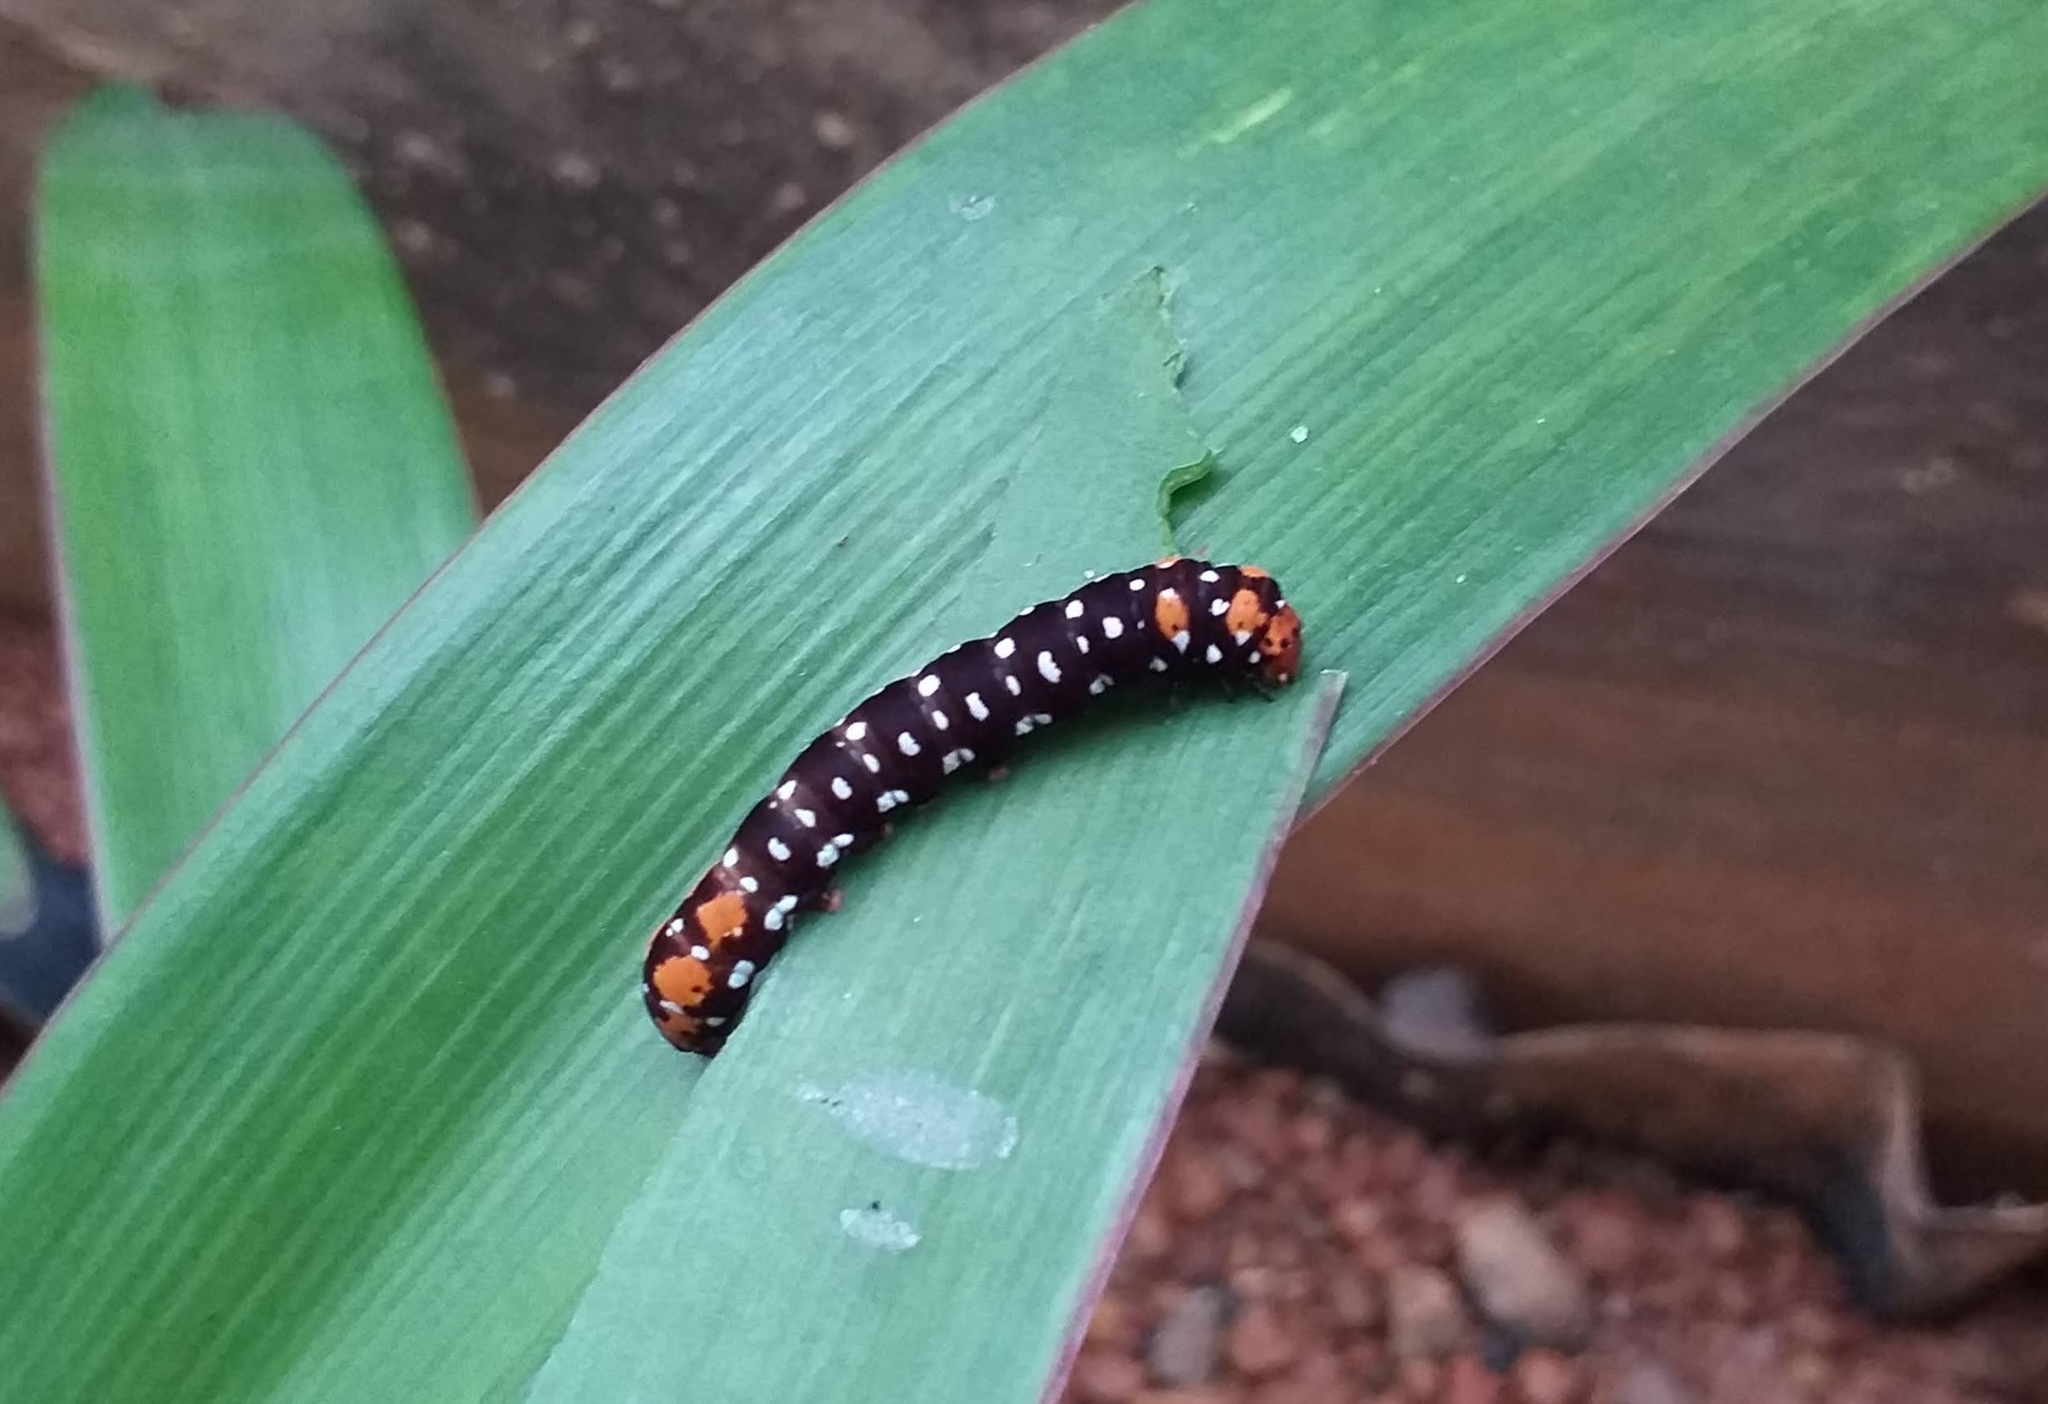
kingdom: Animalia
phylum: Arthropoda
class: Insecta
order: Lepidoptera
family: Noctuidae
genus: Polytela
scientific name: Polytela gloriosae
